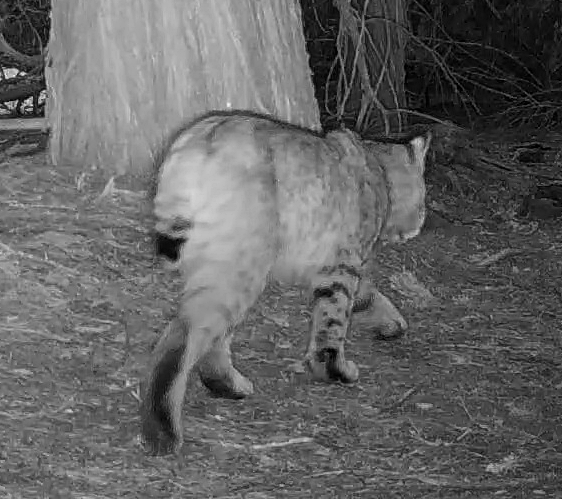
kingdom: Animalia
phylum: Chordata
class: Mammalia
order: Carnivora
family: Felidae
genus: Lynx
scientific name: Lynx rufus
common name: Bobcat
